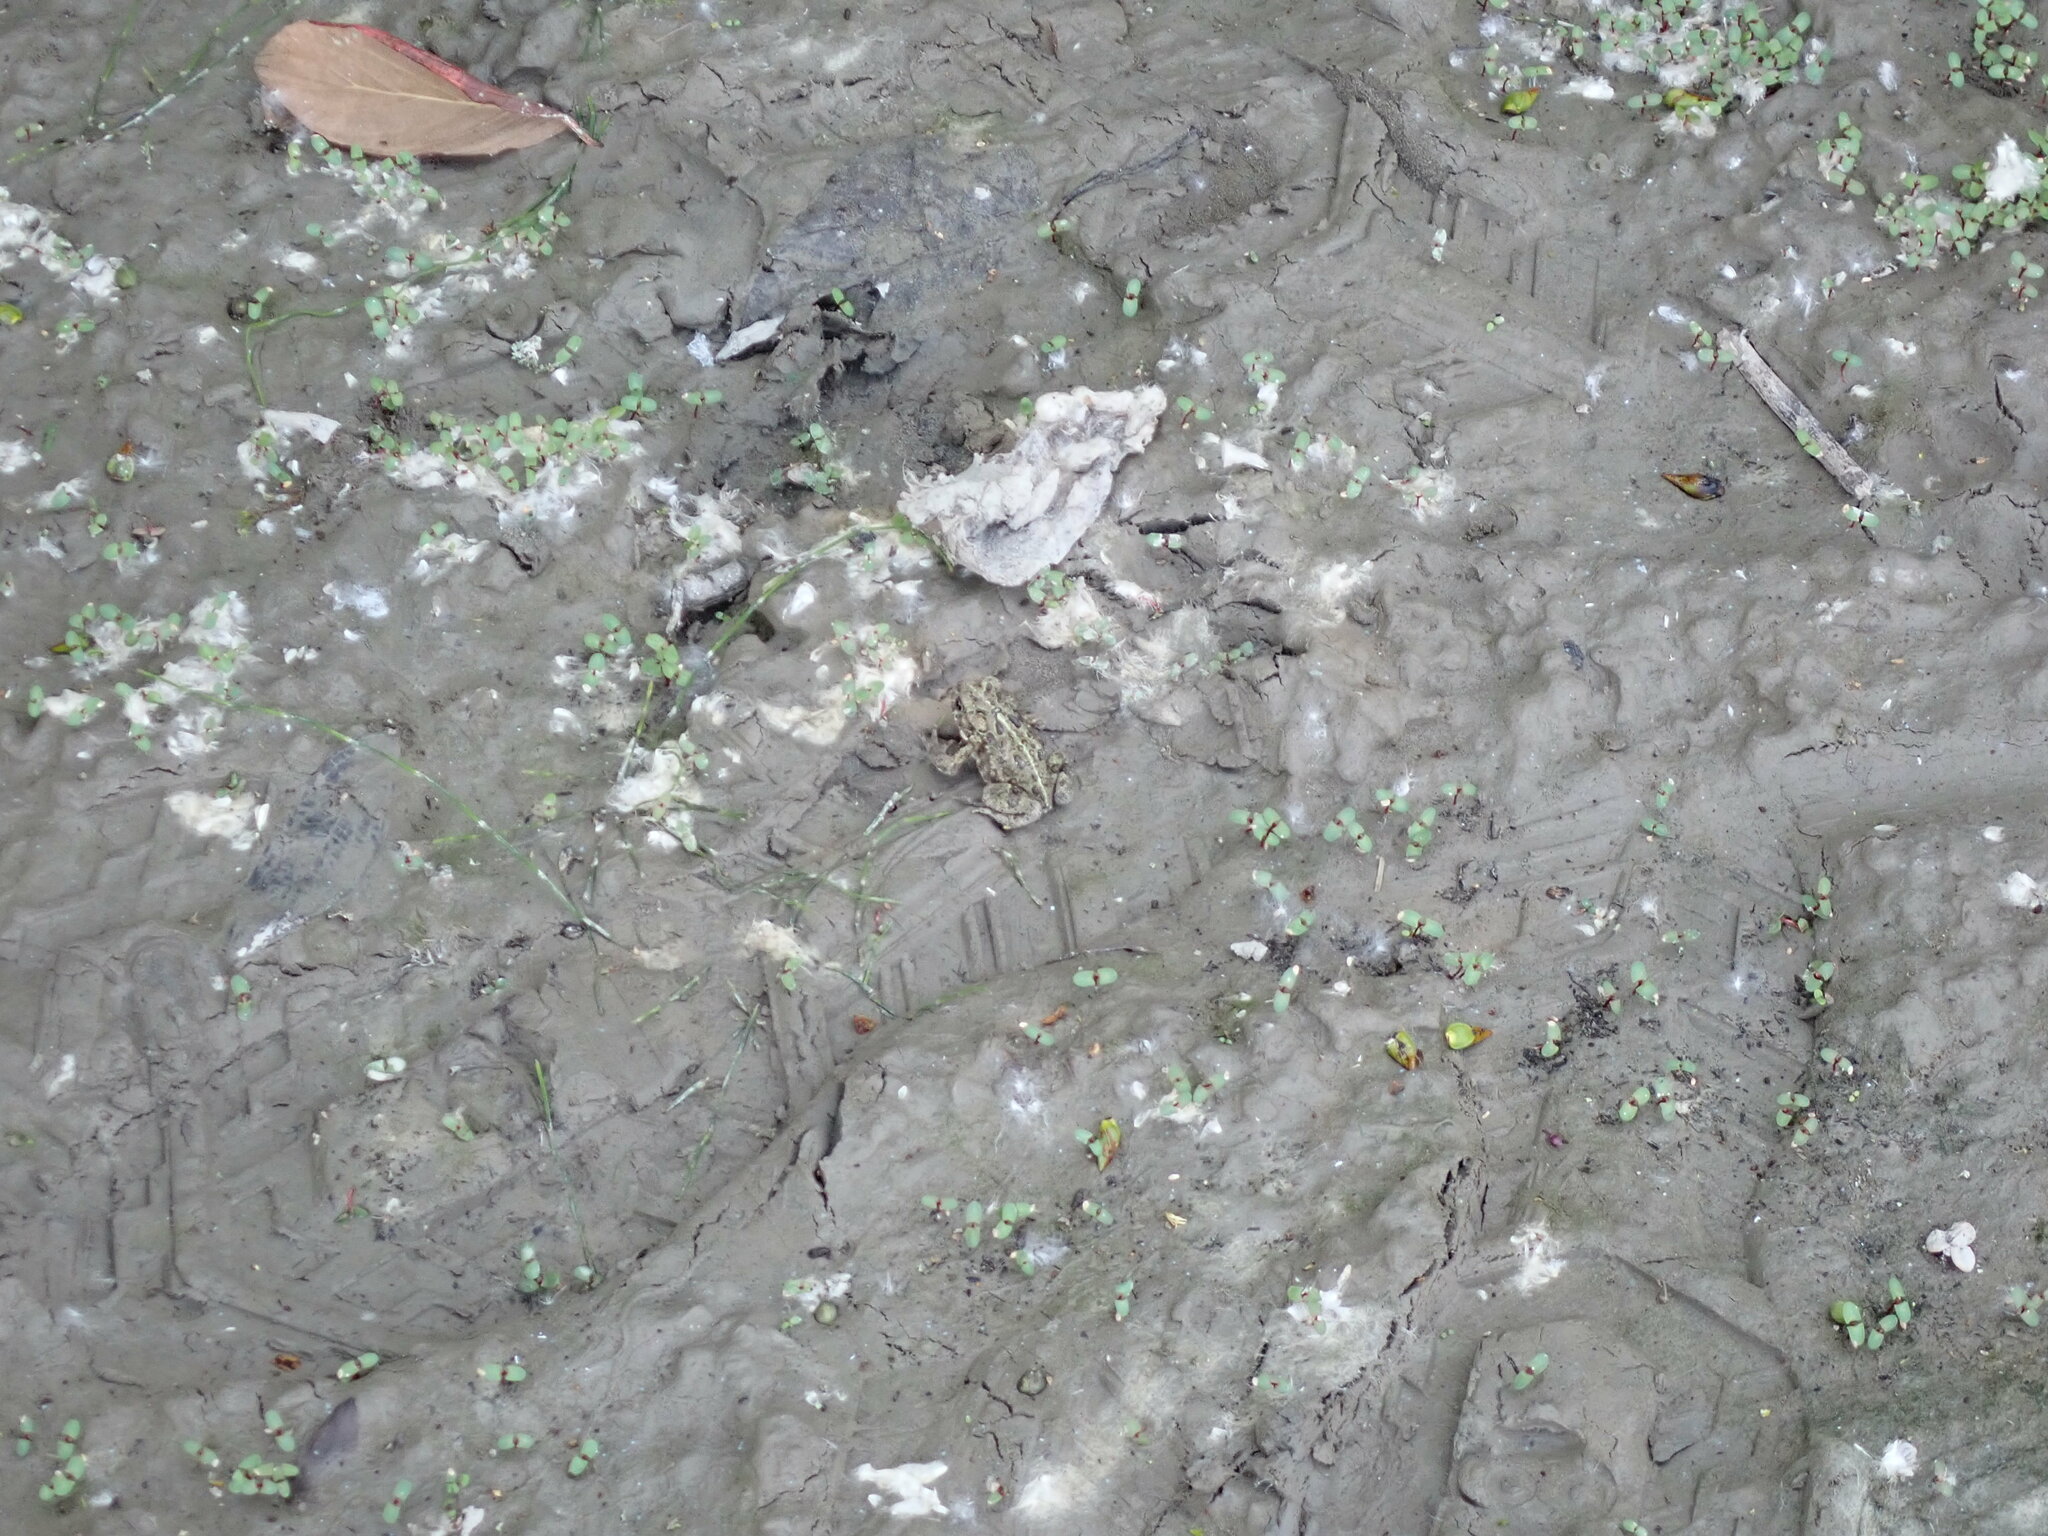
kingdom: Animalia
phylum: Chordata
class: Amphibia
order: Anura
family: Bufonidae
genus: Anaxyrus
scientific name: Anaxyrus boreas
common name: Western toad
